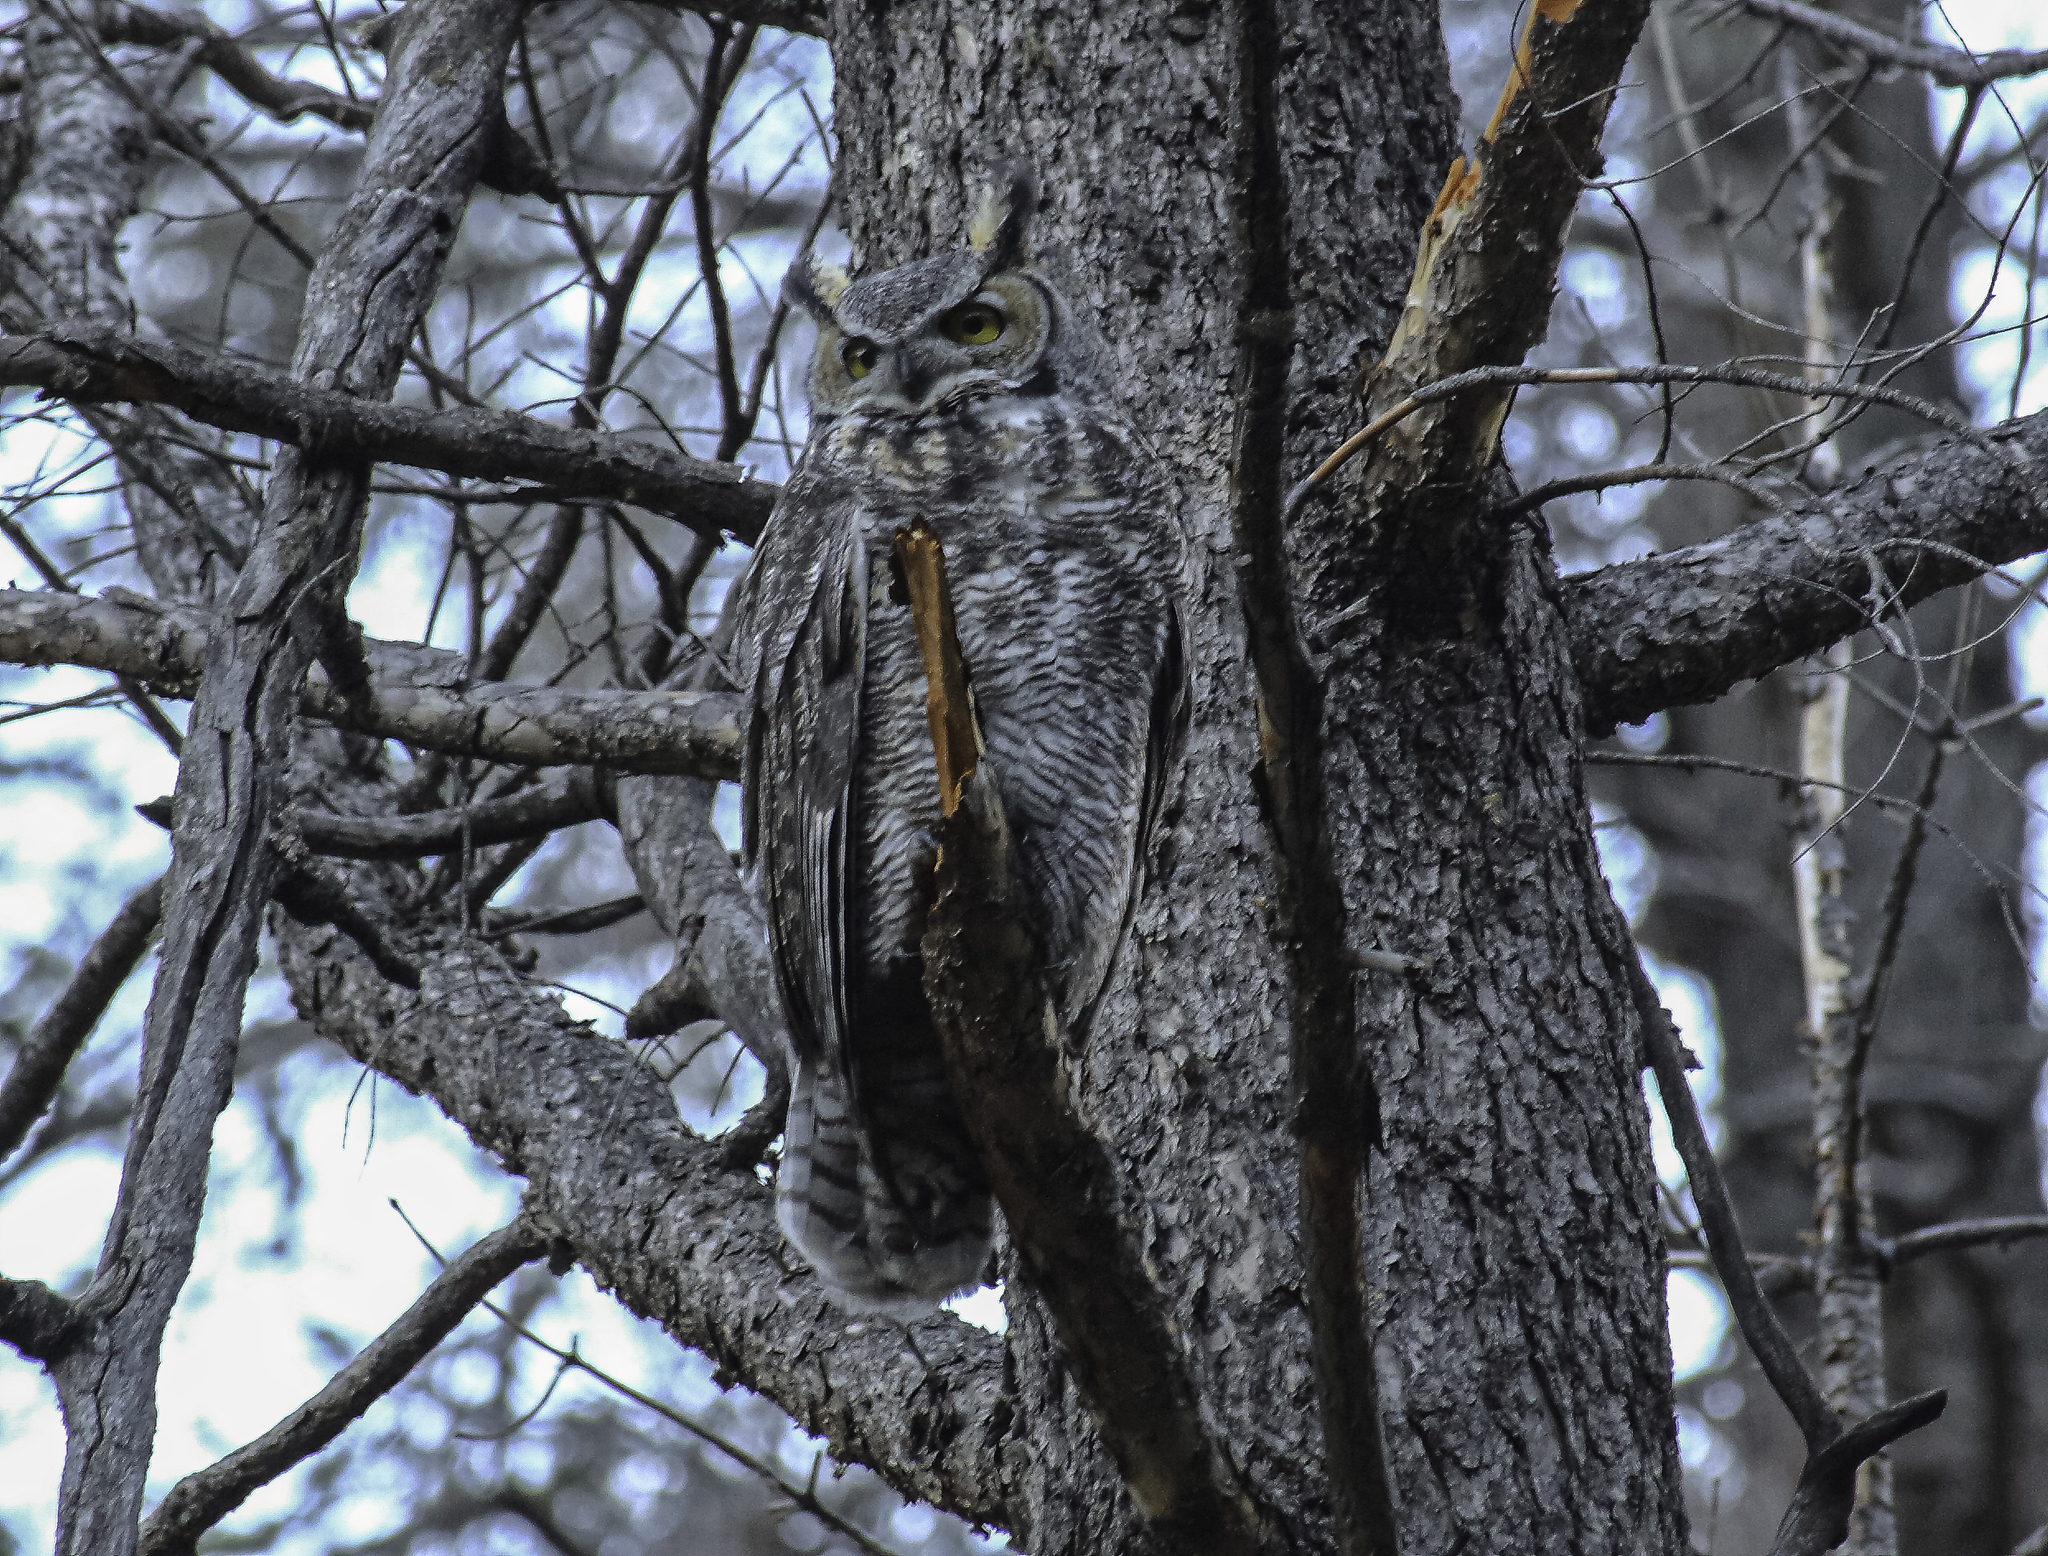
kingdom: Animalia
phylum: Chordata
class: Aves
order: Strigiformes
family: Strigidae
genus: Bubo
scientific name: Bubo virginianus
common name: Great horned owl
